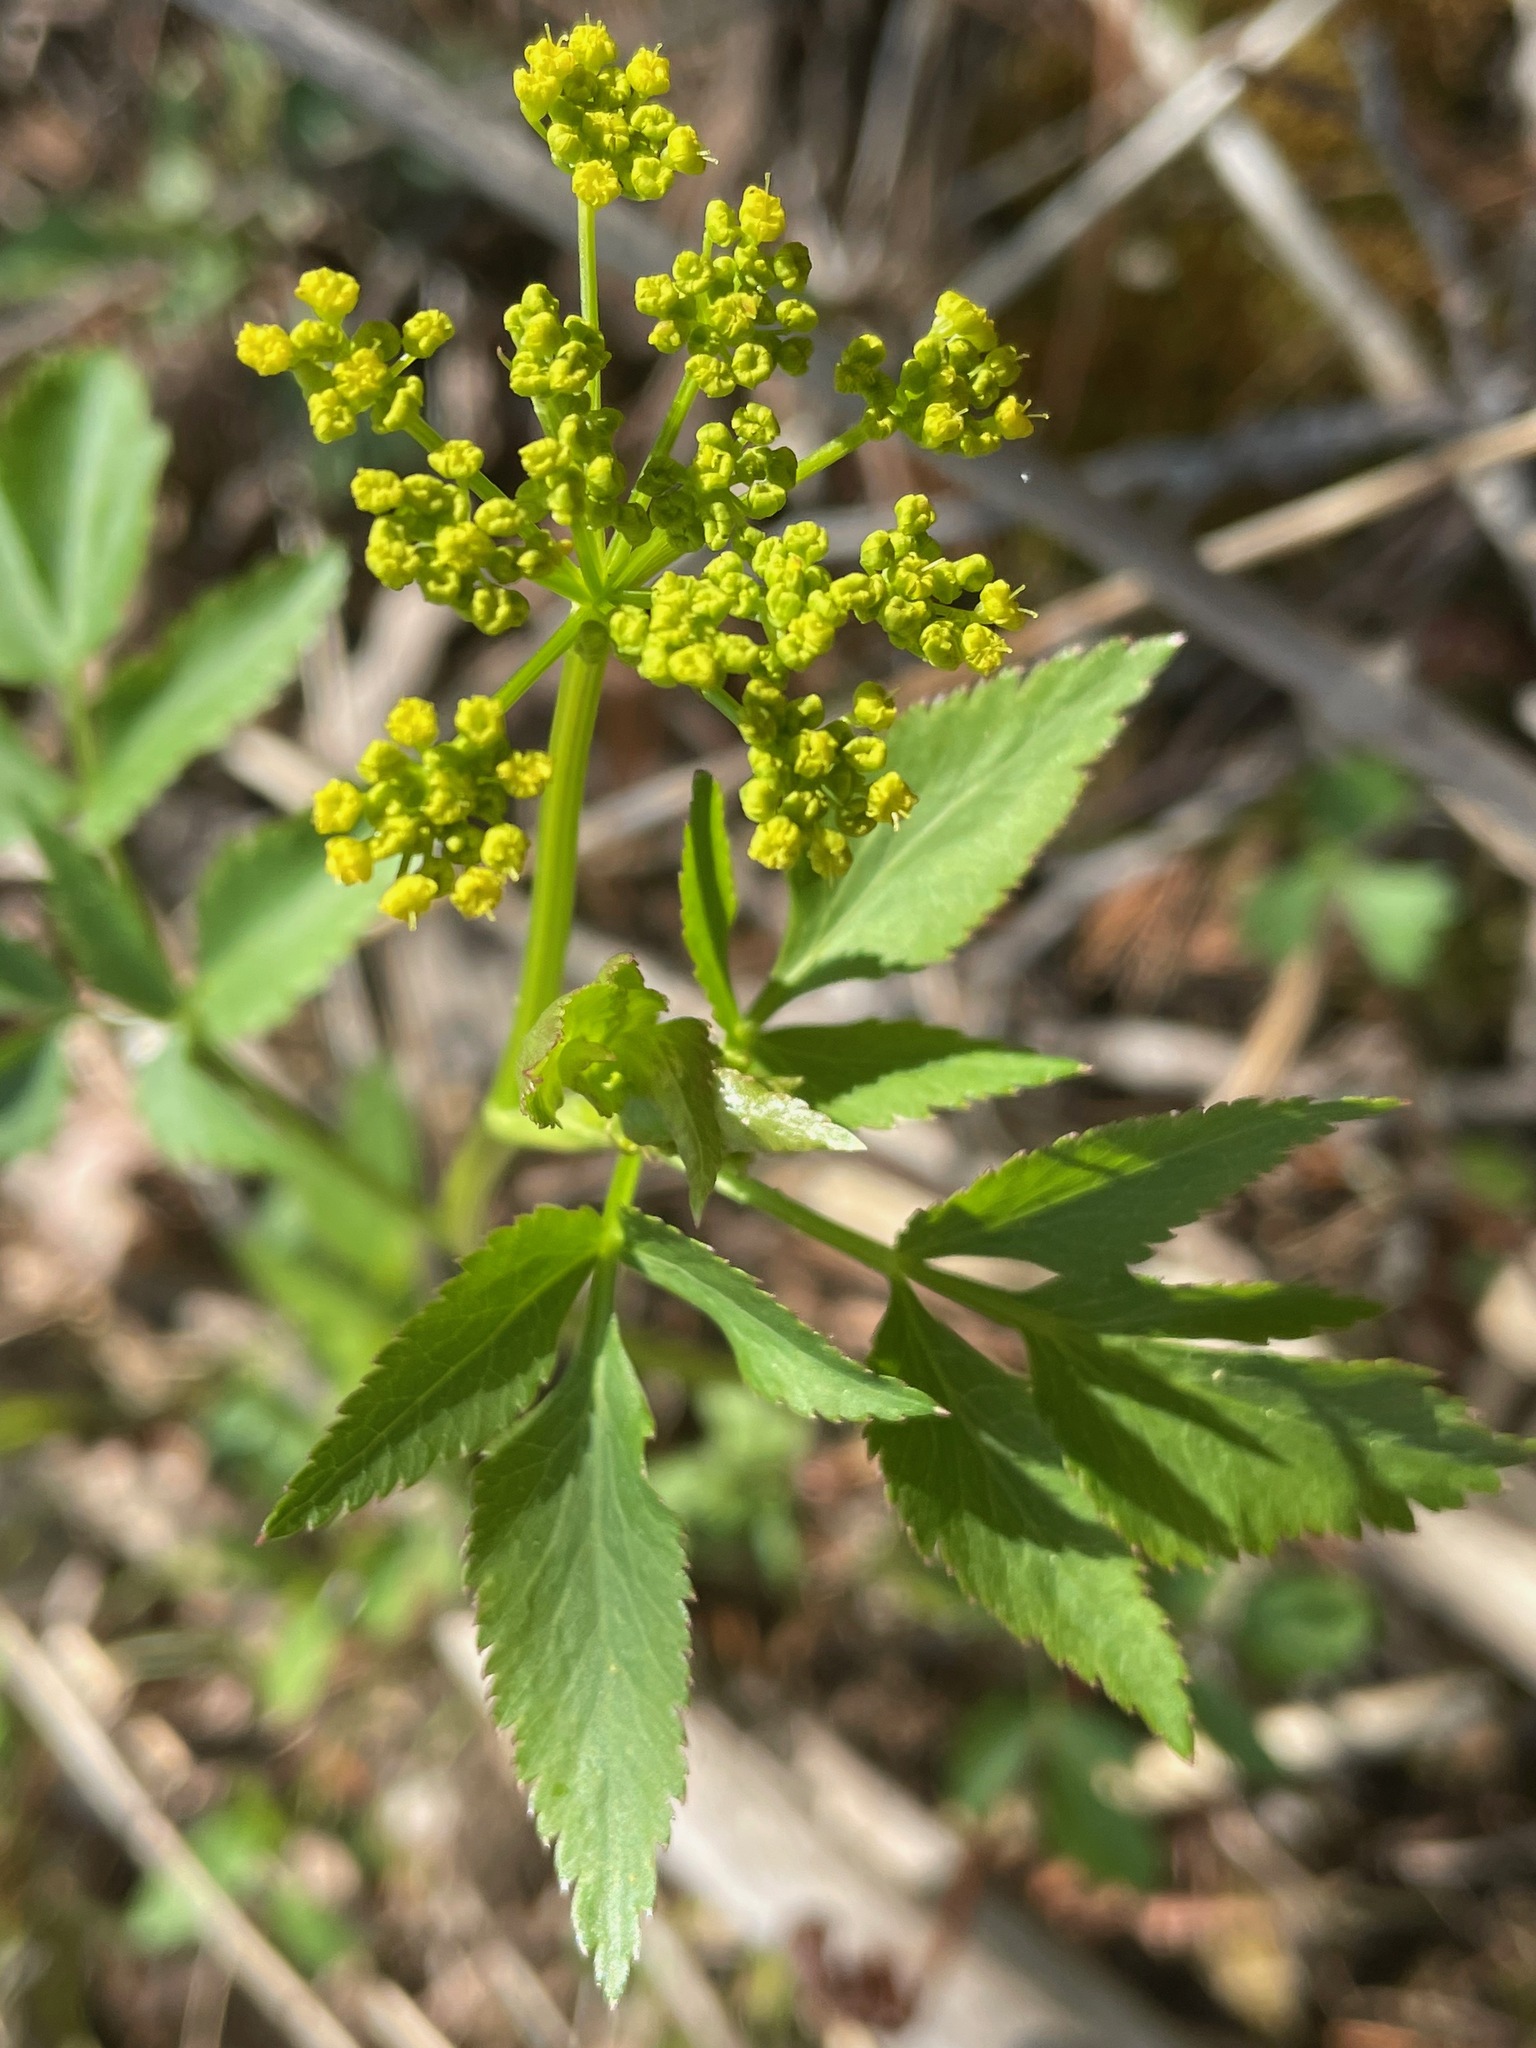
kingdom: Plantae
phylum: Tracheophyta
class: Magnoliopsida
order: Apiales
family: Apiaceae
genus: Zizia
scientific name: Zizia aurea
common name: Golden alexanders
